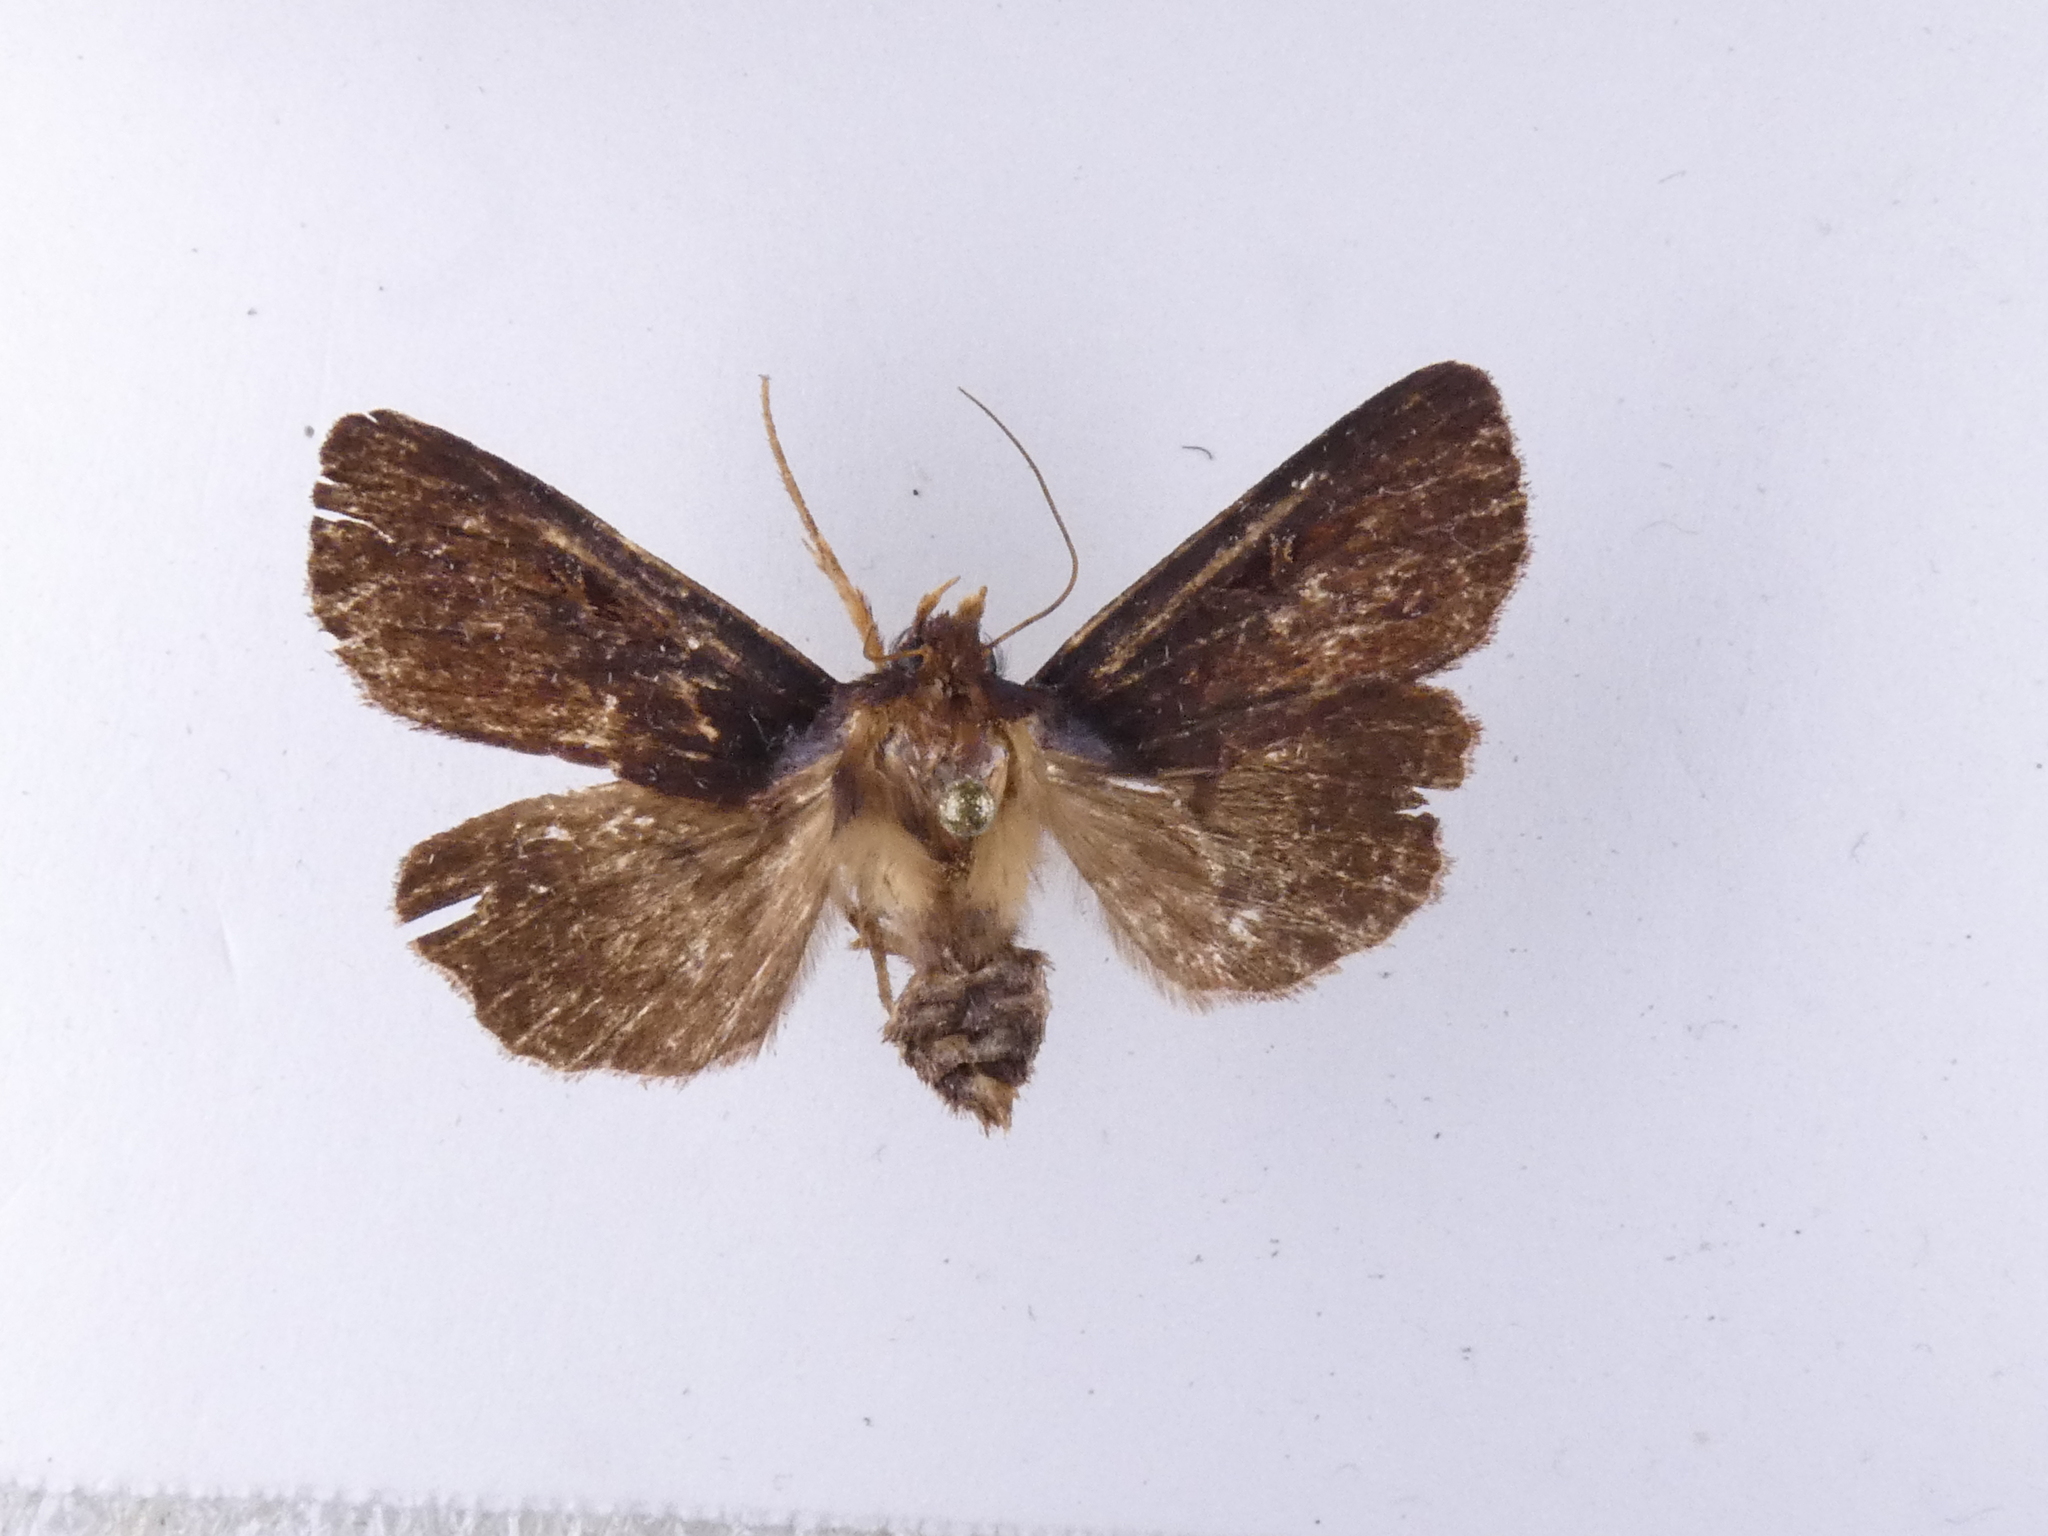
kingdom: Animalia
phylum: Arthropoda
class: Insecta
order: Lepidoptera
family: Noctuidae
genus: Austramathes
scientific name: Austramathes purpurea
